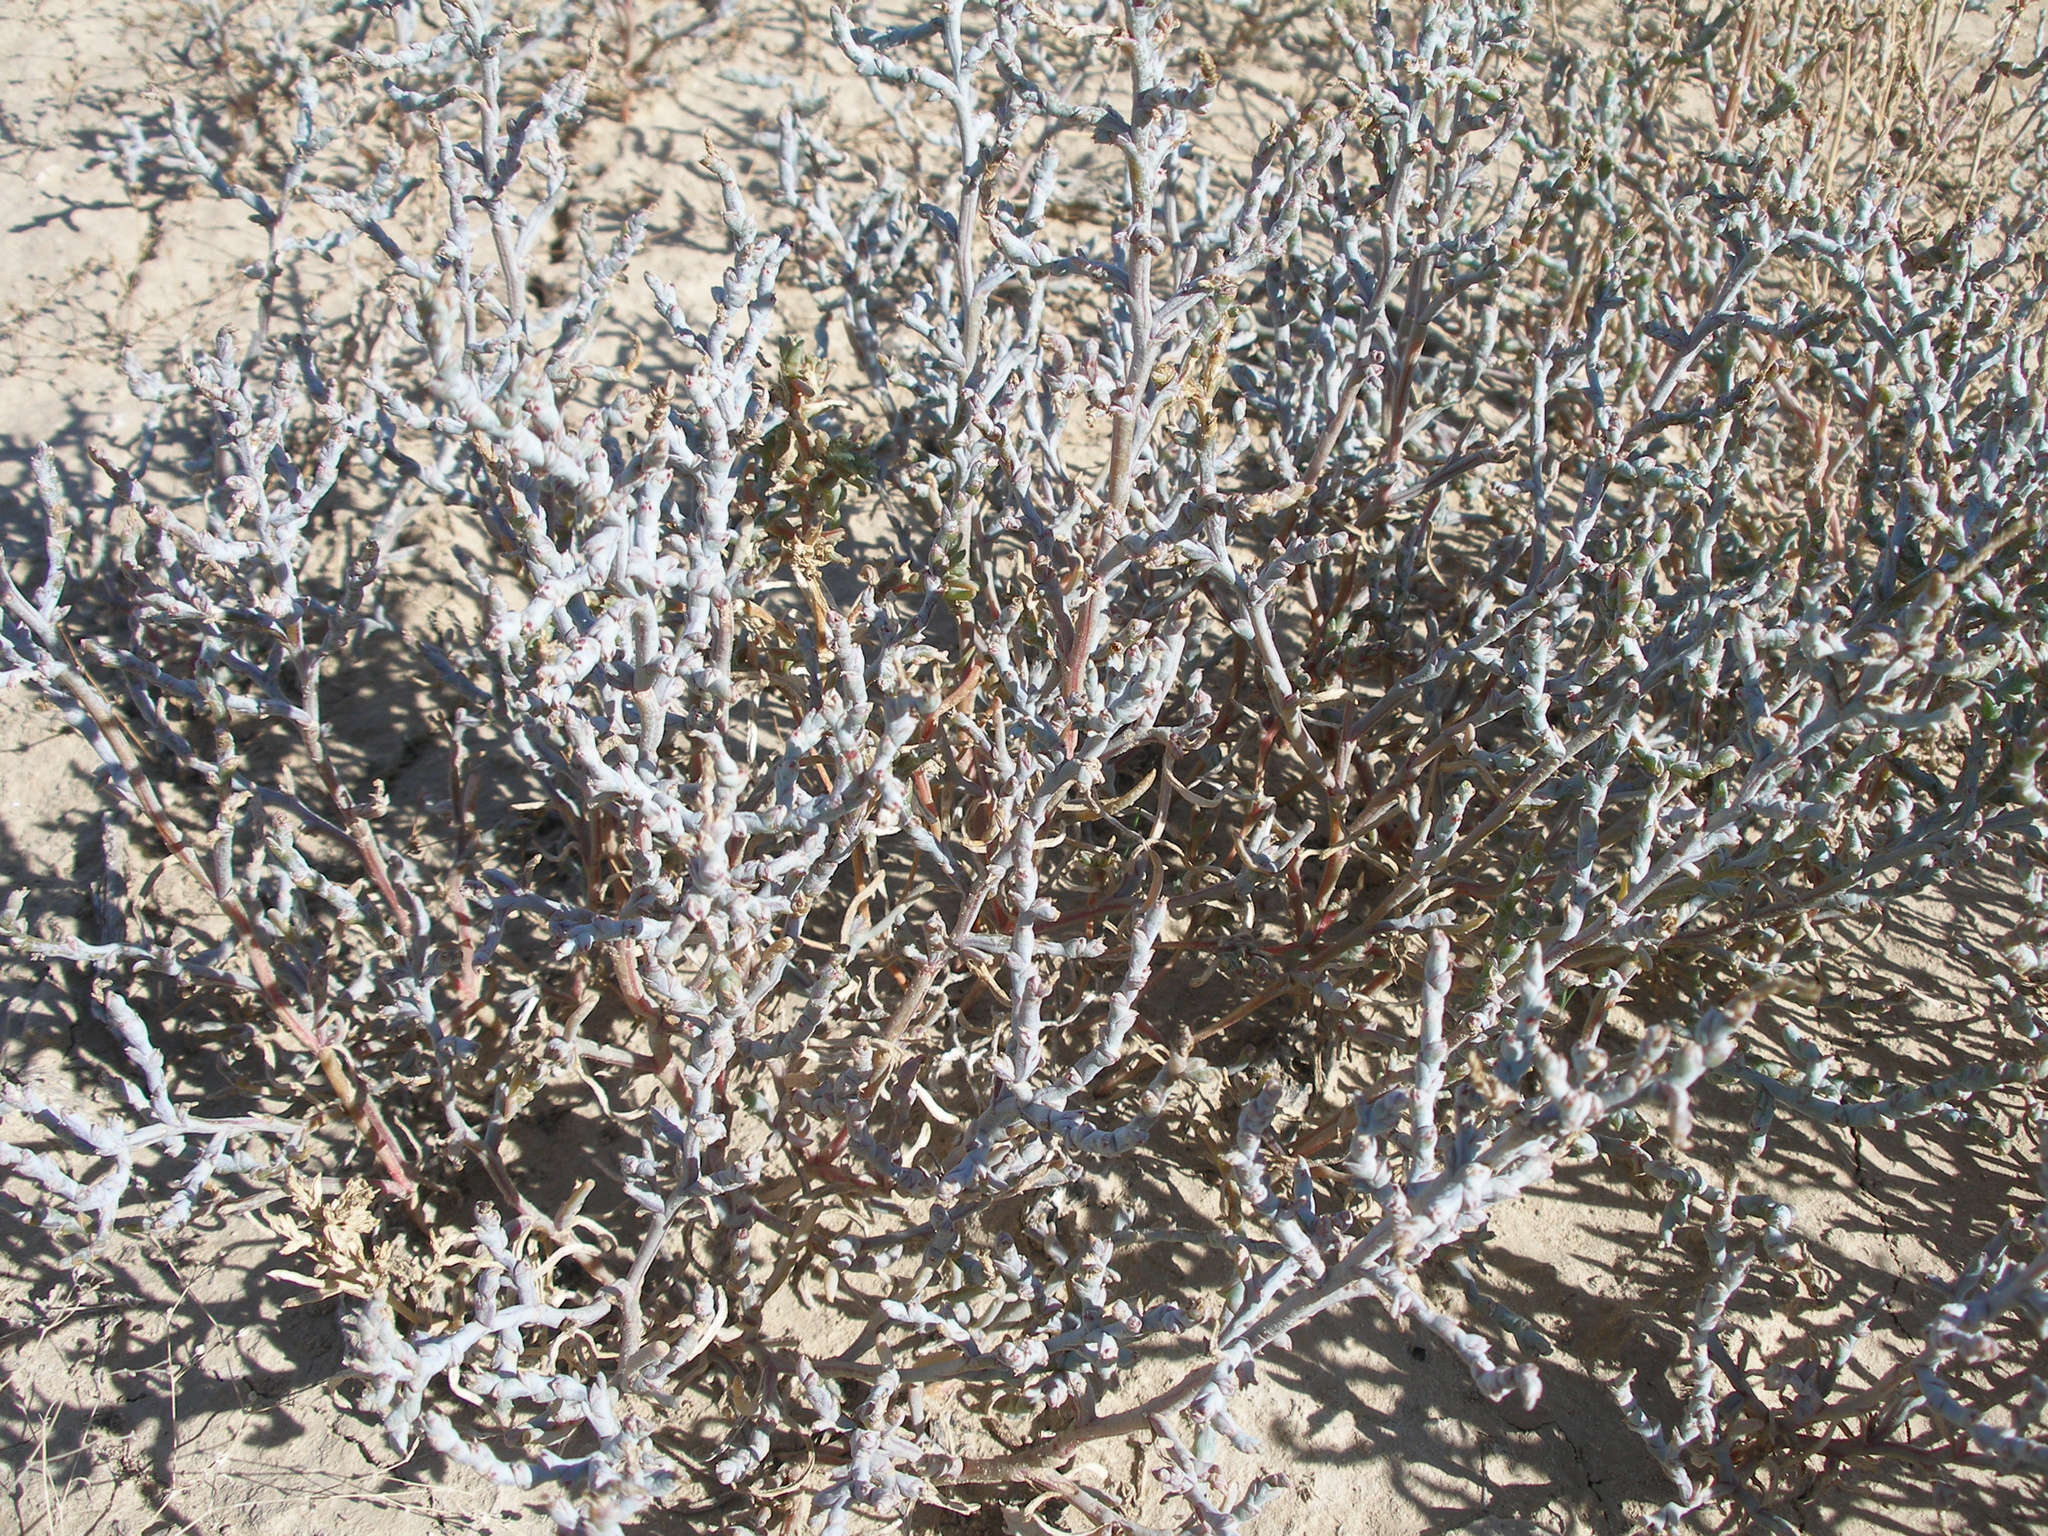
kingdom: Plantae
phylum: Tracheophyta
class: Magnoliopsida
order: Caryophyllales
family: Amaranthaceae
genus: Ofaiston
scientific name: Ofaiston monandrum
